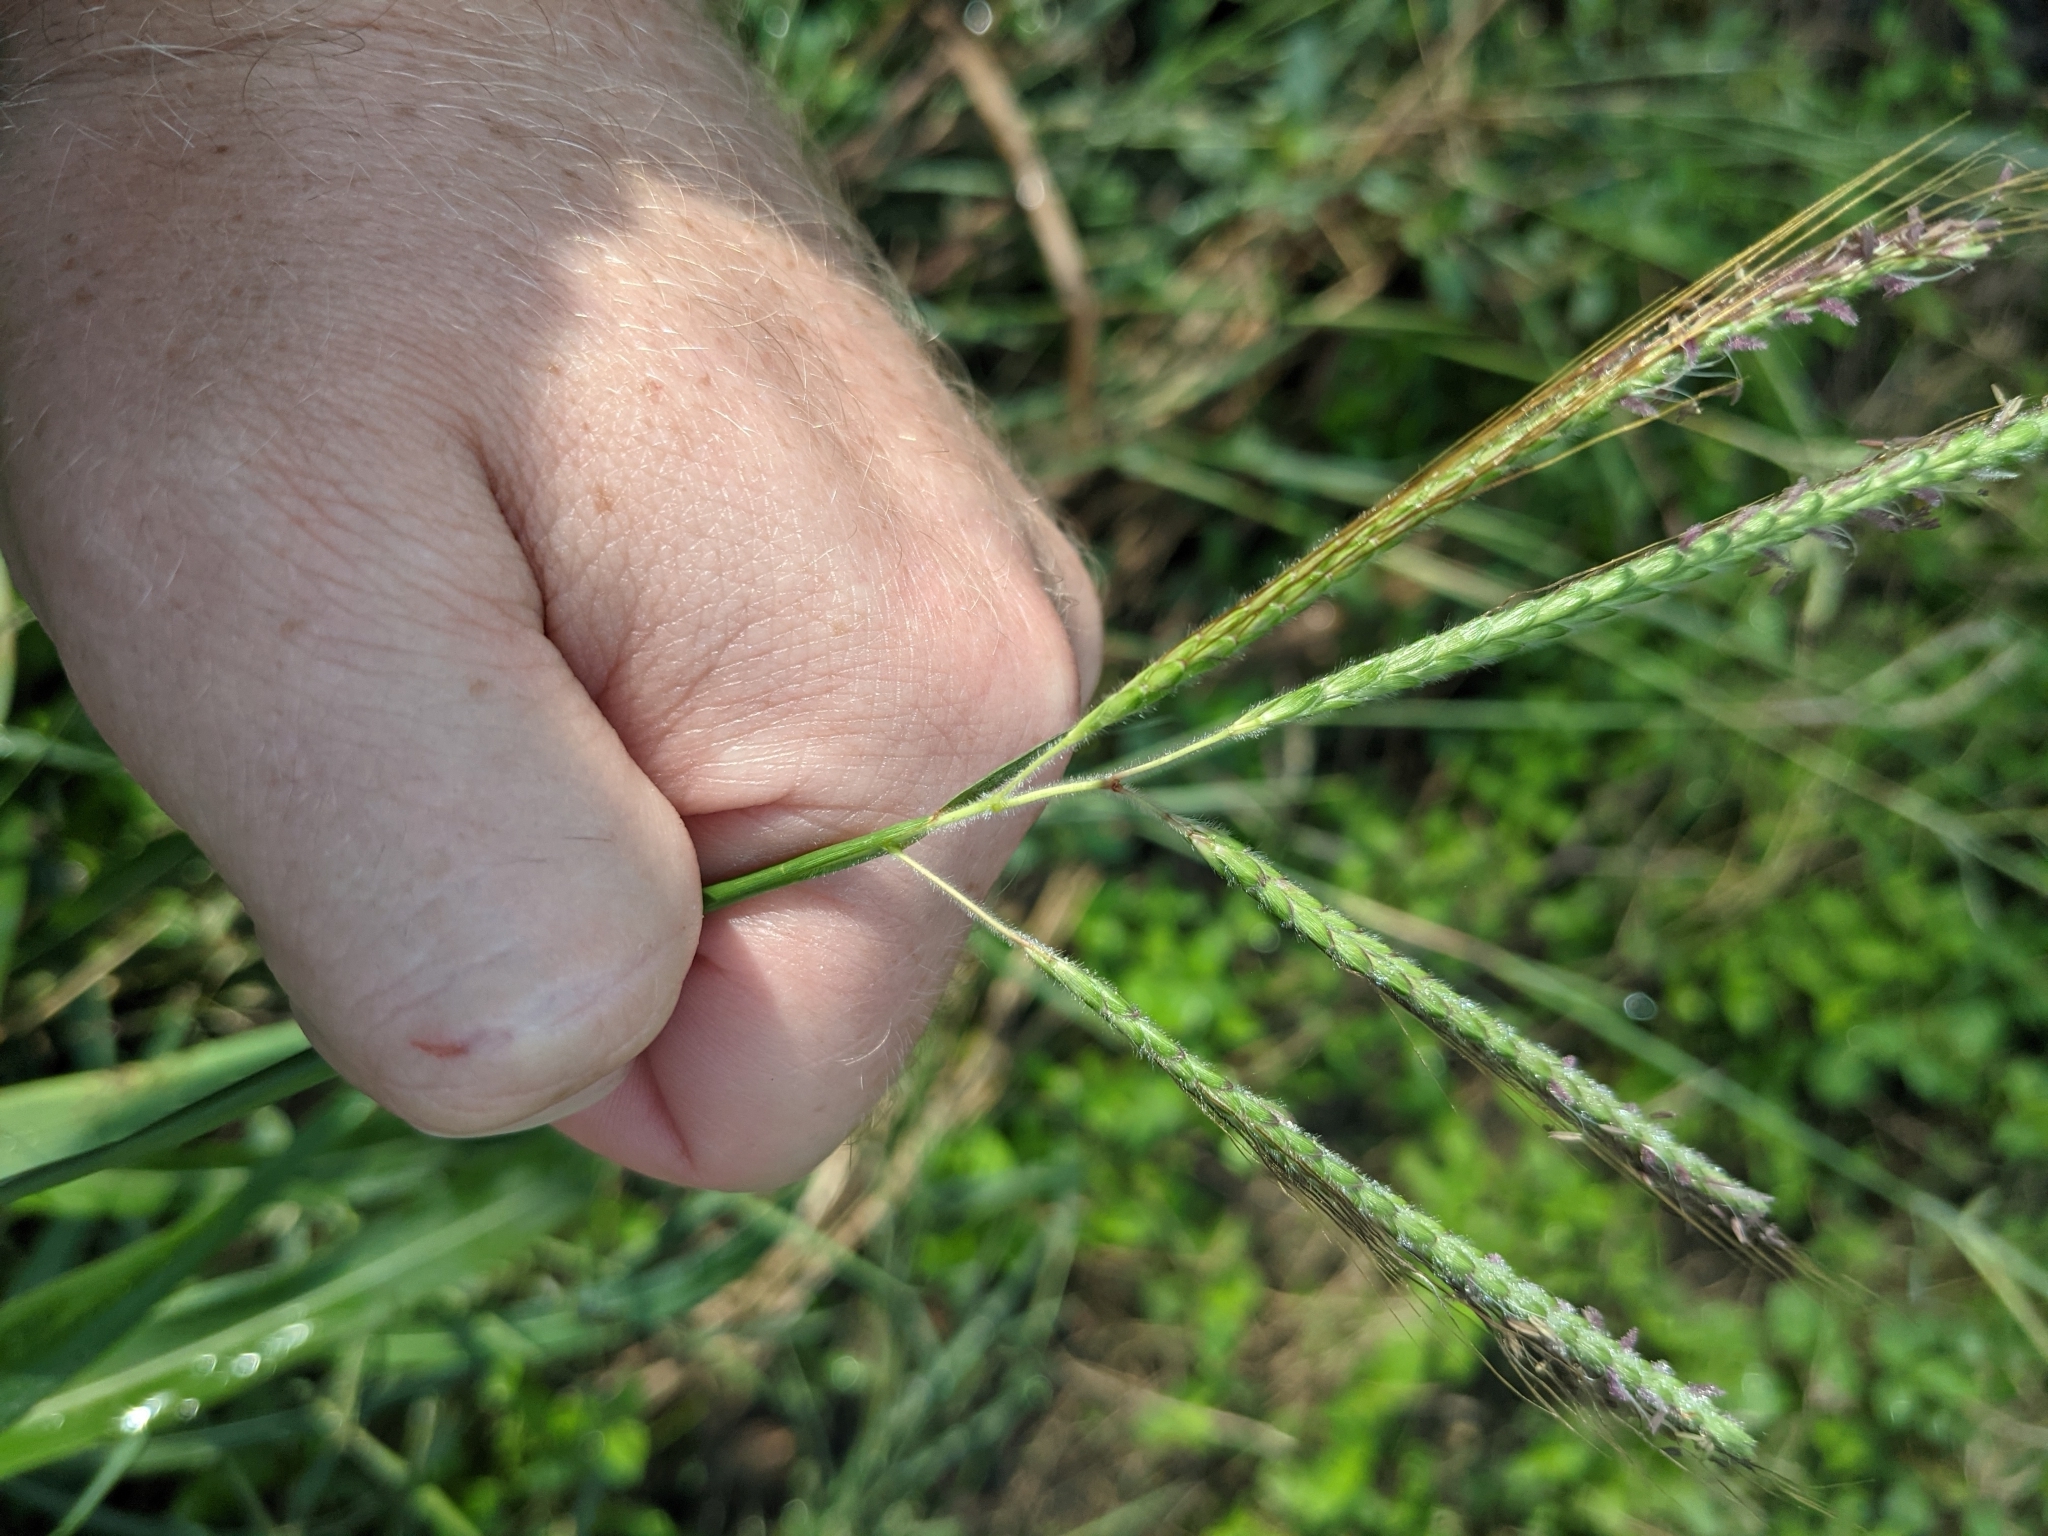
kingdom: Plantae
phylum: Tracheophyta
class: Liliopsida
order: Poales
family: Poaceae
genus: Dichanthium
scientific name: Dichanthium aristatum
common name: Angleton bluestem
